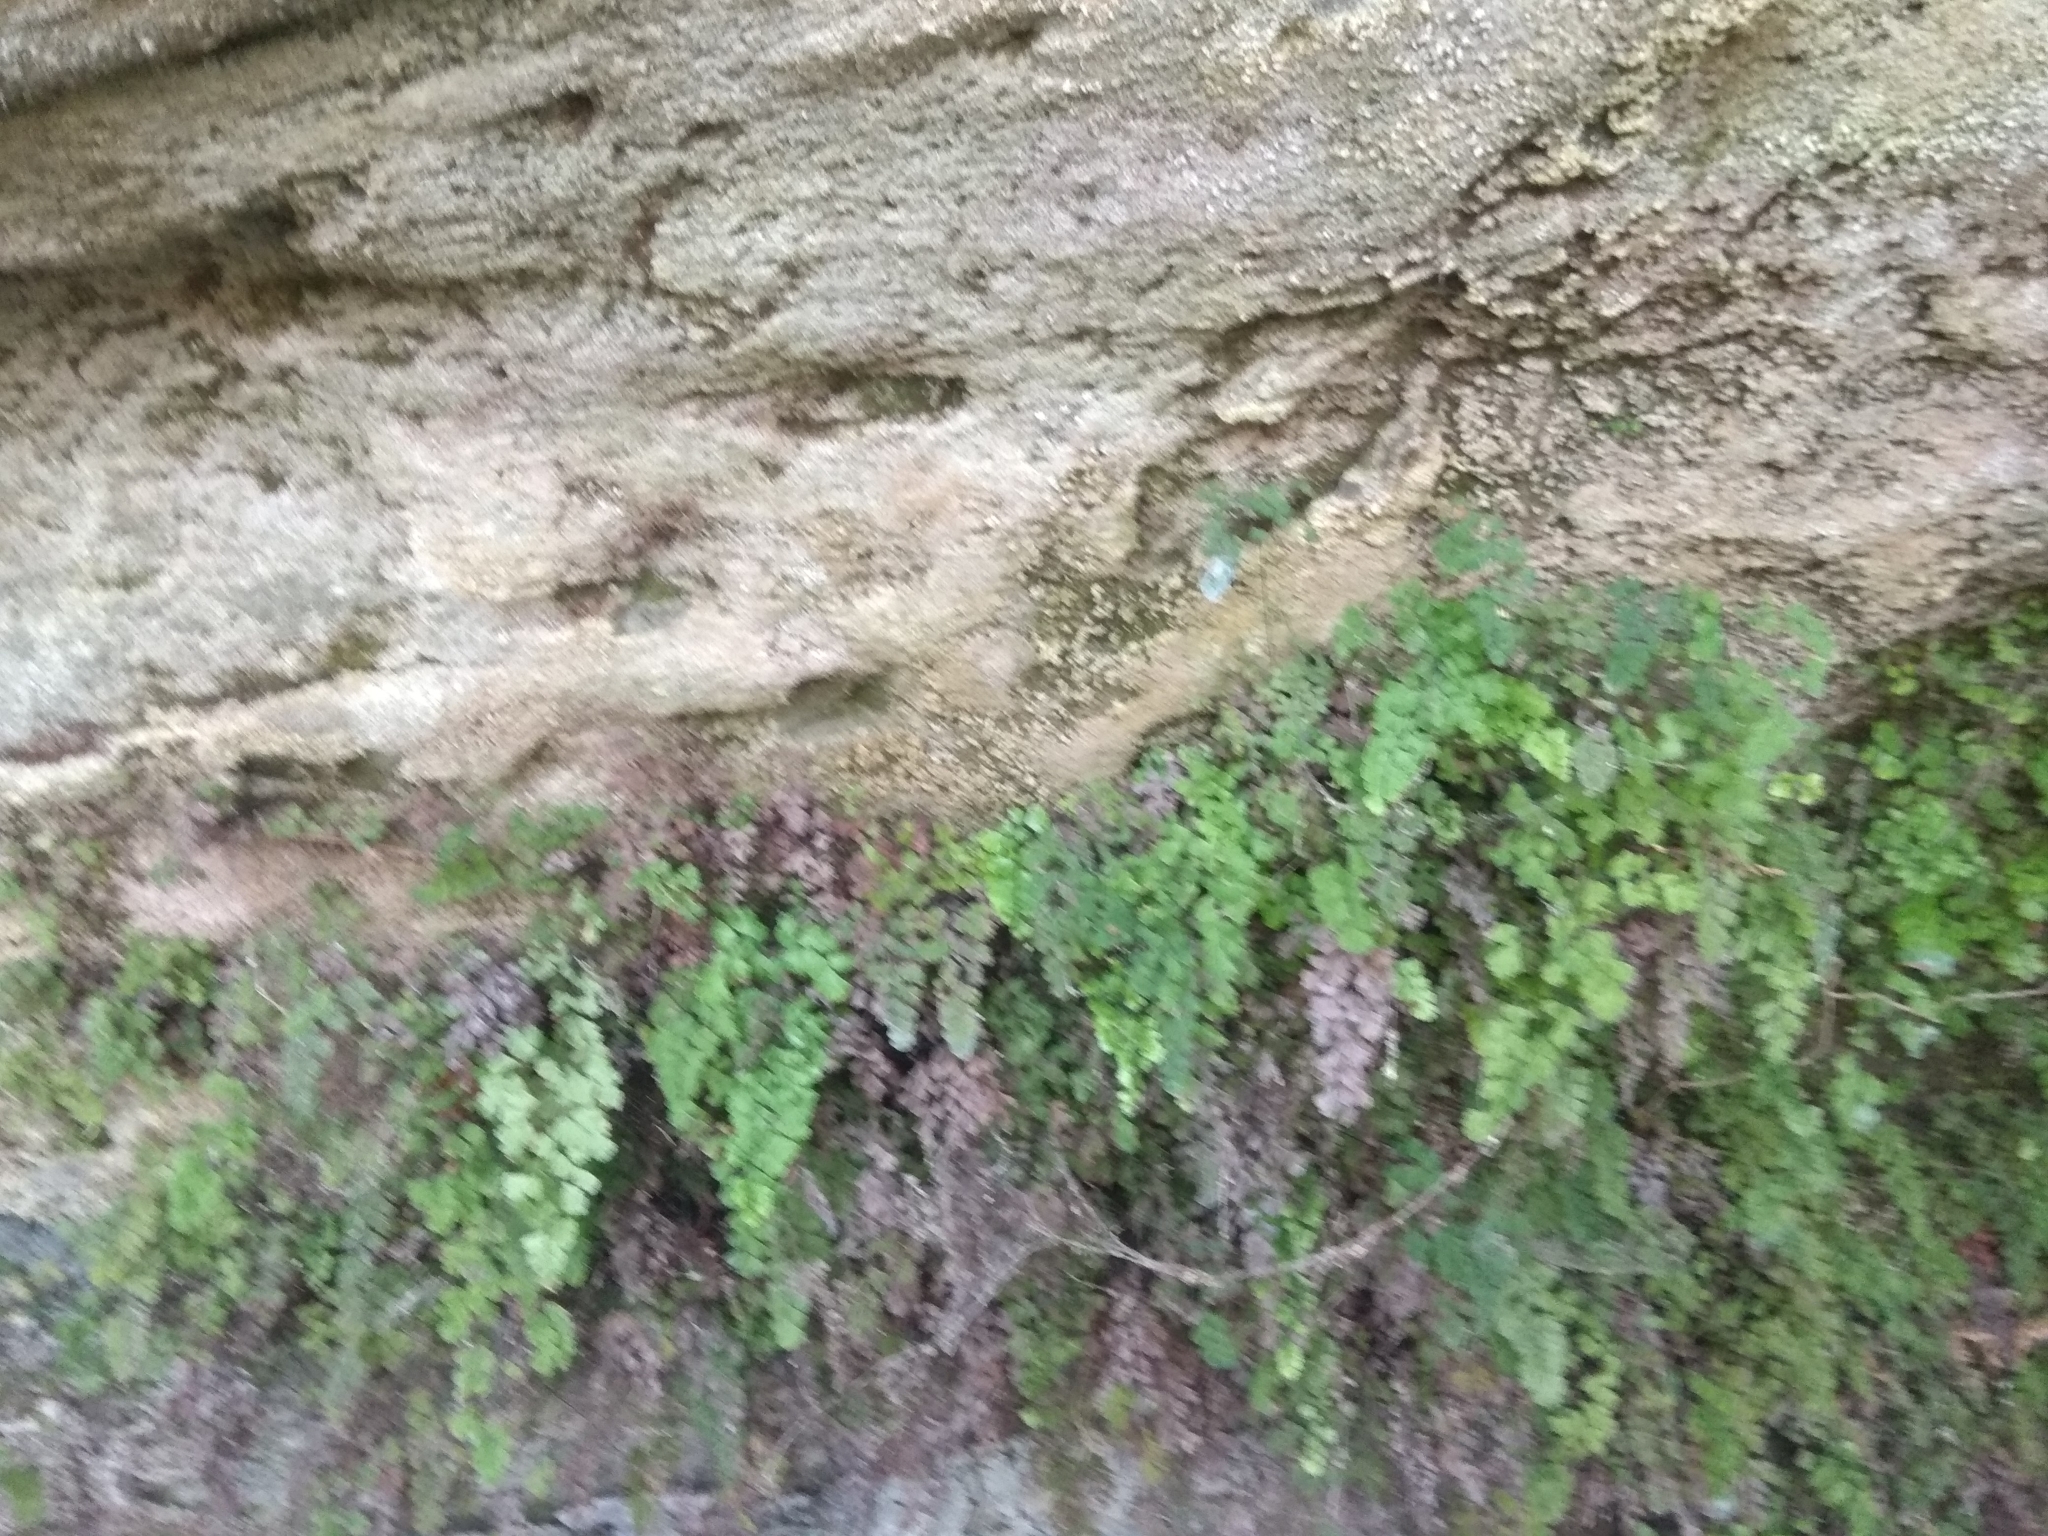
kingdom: Plantae
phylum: Tracheophyta
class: Polypodiopsida
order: Polypodiales
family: Pteridaceae
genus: Adiantum
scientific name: Adiantum capillus-veneris
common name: Maidenhair fern
